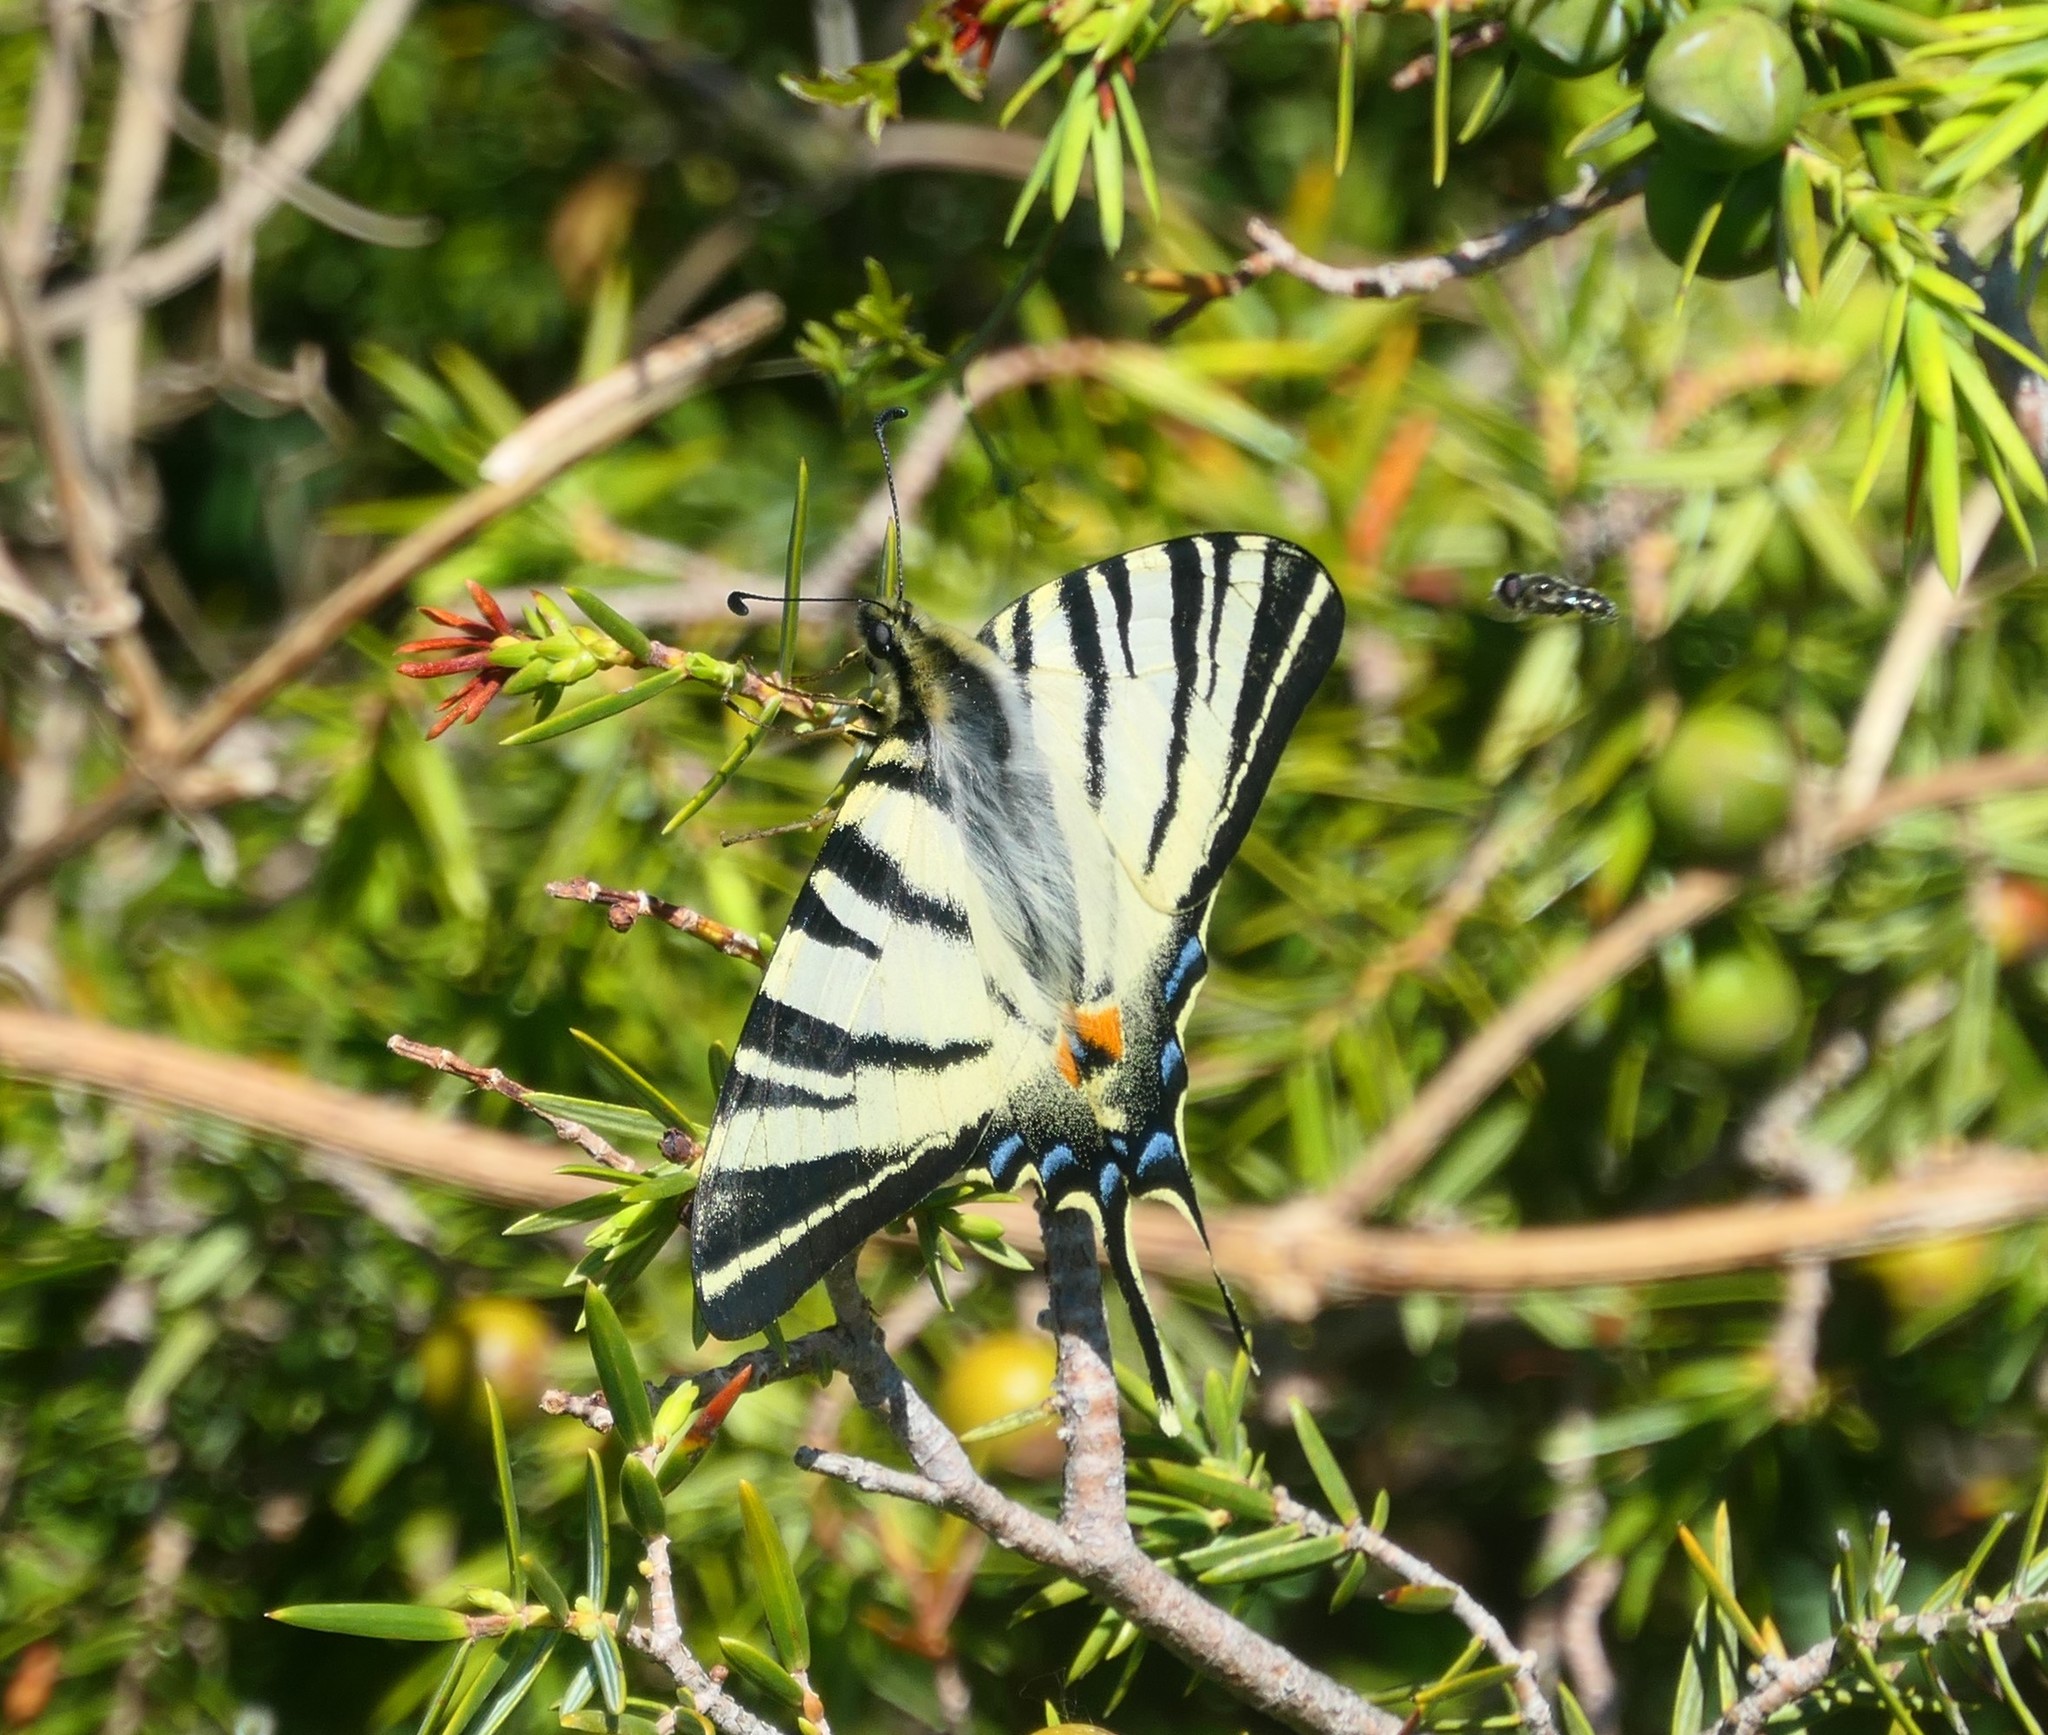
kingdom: Animalia
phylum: Arthropoda
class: Insecta
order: Lepidoptera
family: Papilionidae
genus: Iphiclides
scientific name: Iphiclides podalirius
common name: Scarce swallowtail
